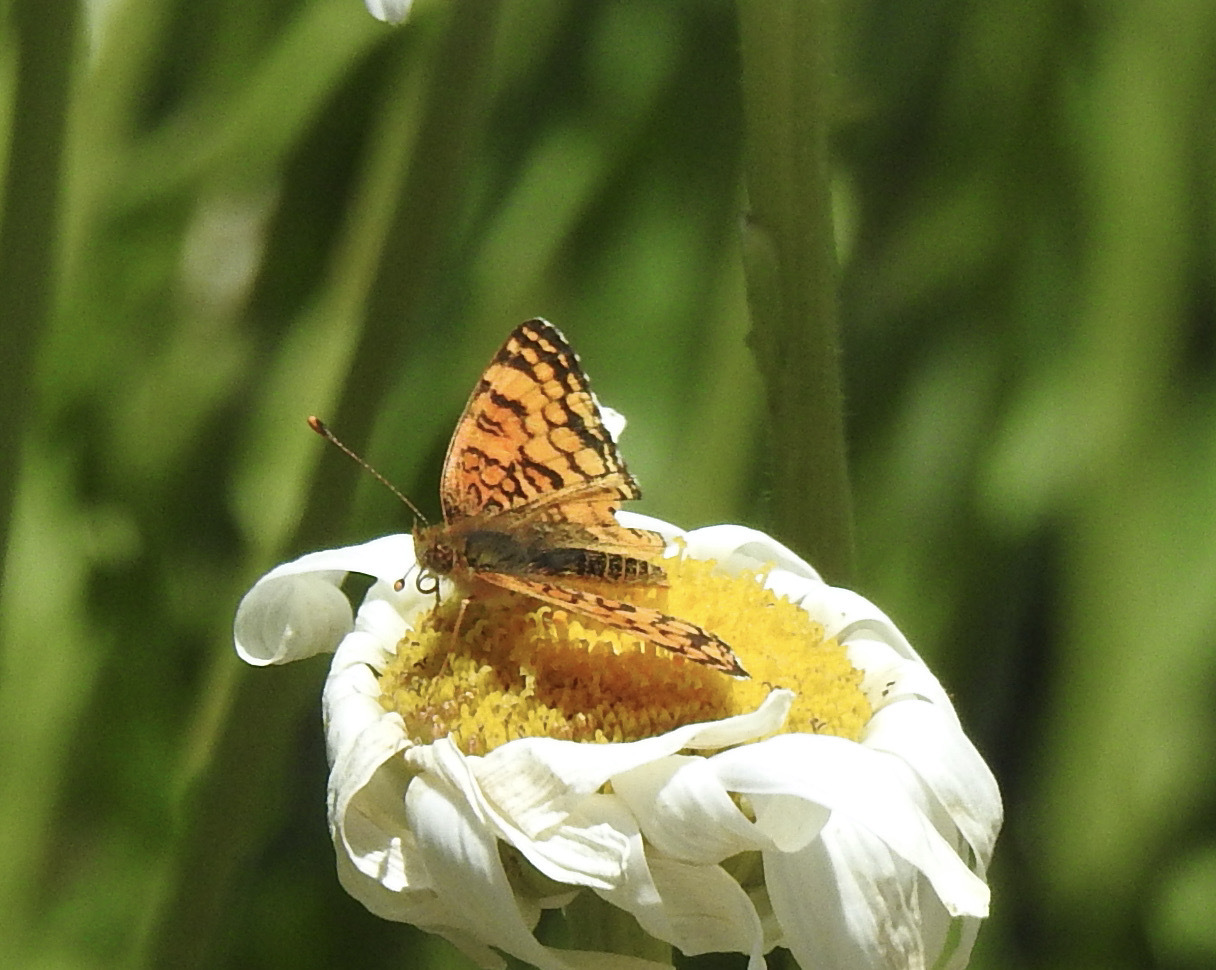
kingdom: Animalia
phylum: Arthropoda
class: Insecta
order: Lepidoptera
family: Nymphalidae
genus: Eresia
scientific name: Eresia aveyrona
